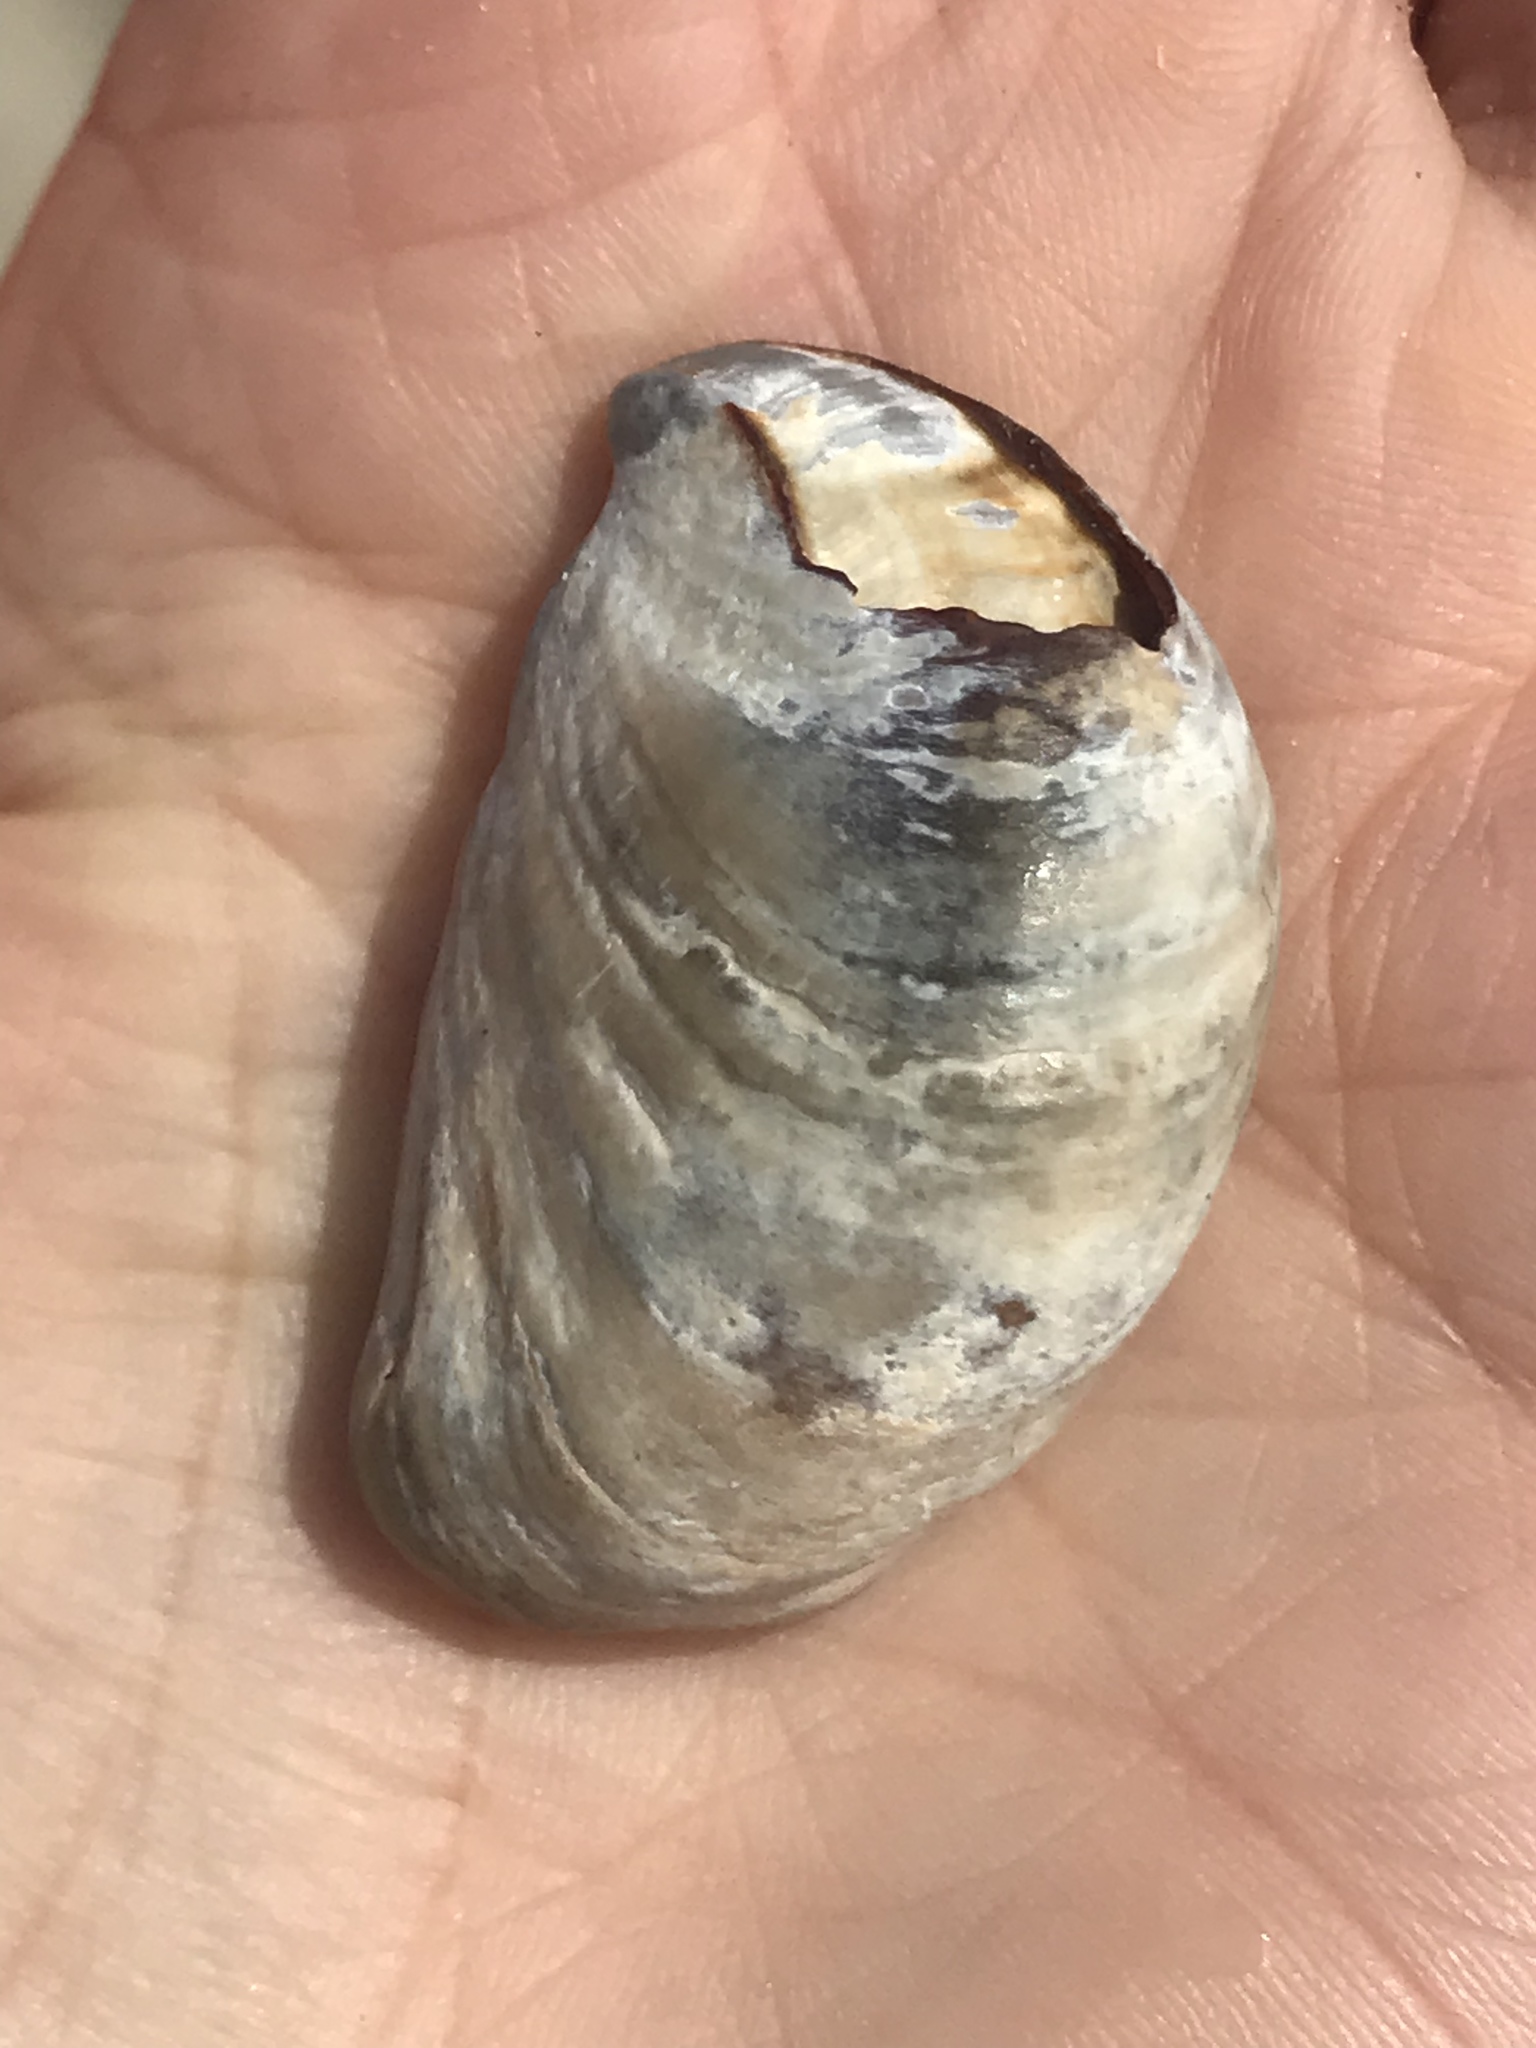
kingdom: Animalia
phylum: Mollusca
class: Gastropoda
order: Littorinimorpha
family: Calyptraeidae
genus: Crepidula
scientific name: Crepidula onyx
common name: Onyx slippersnail
